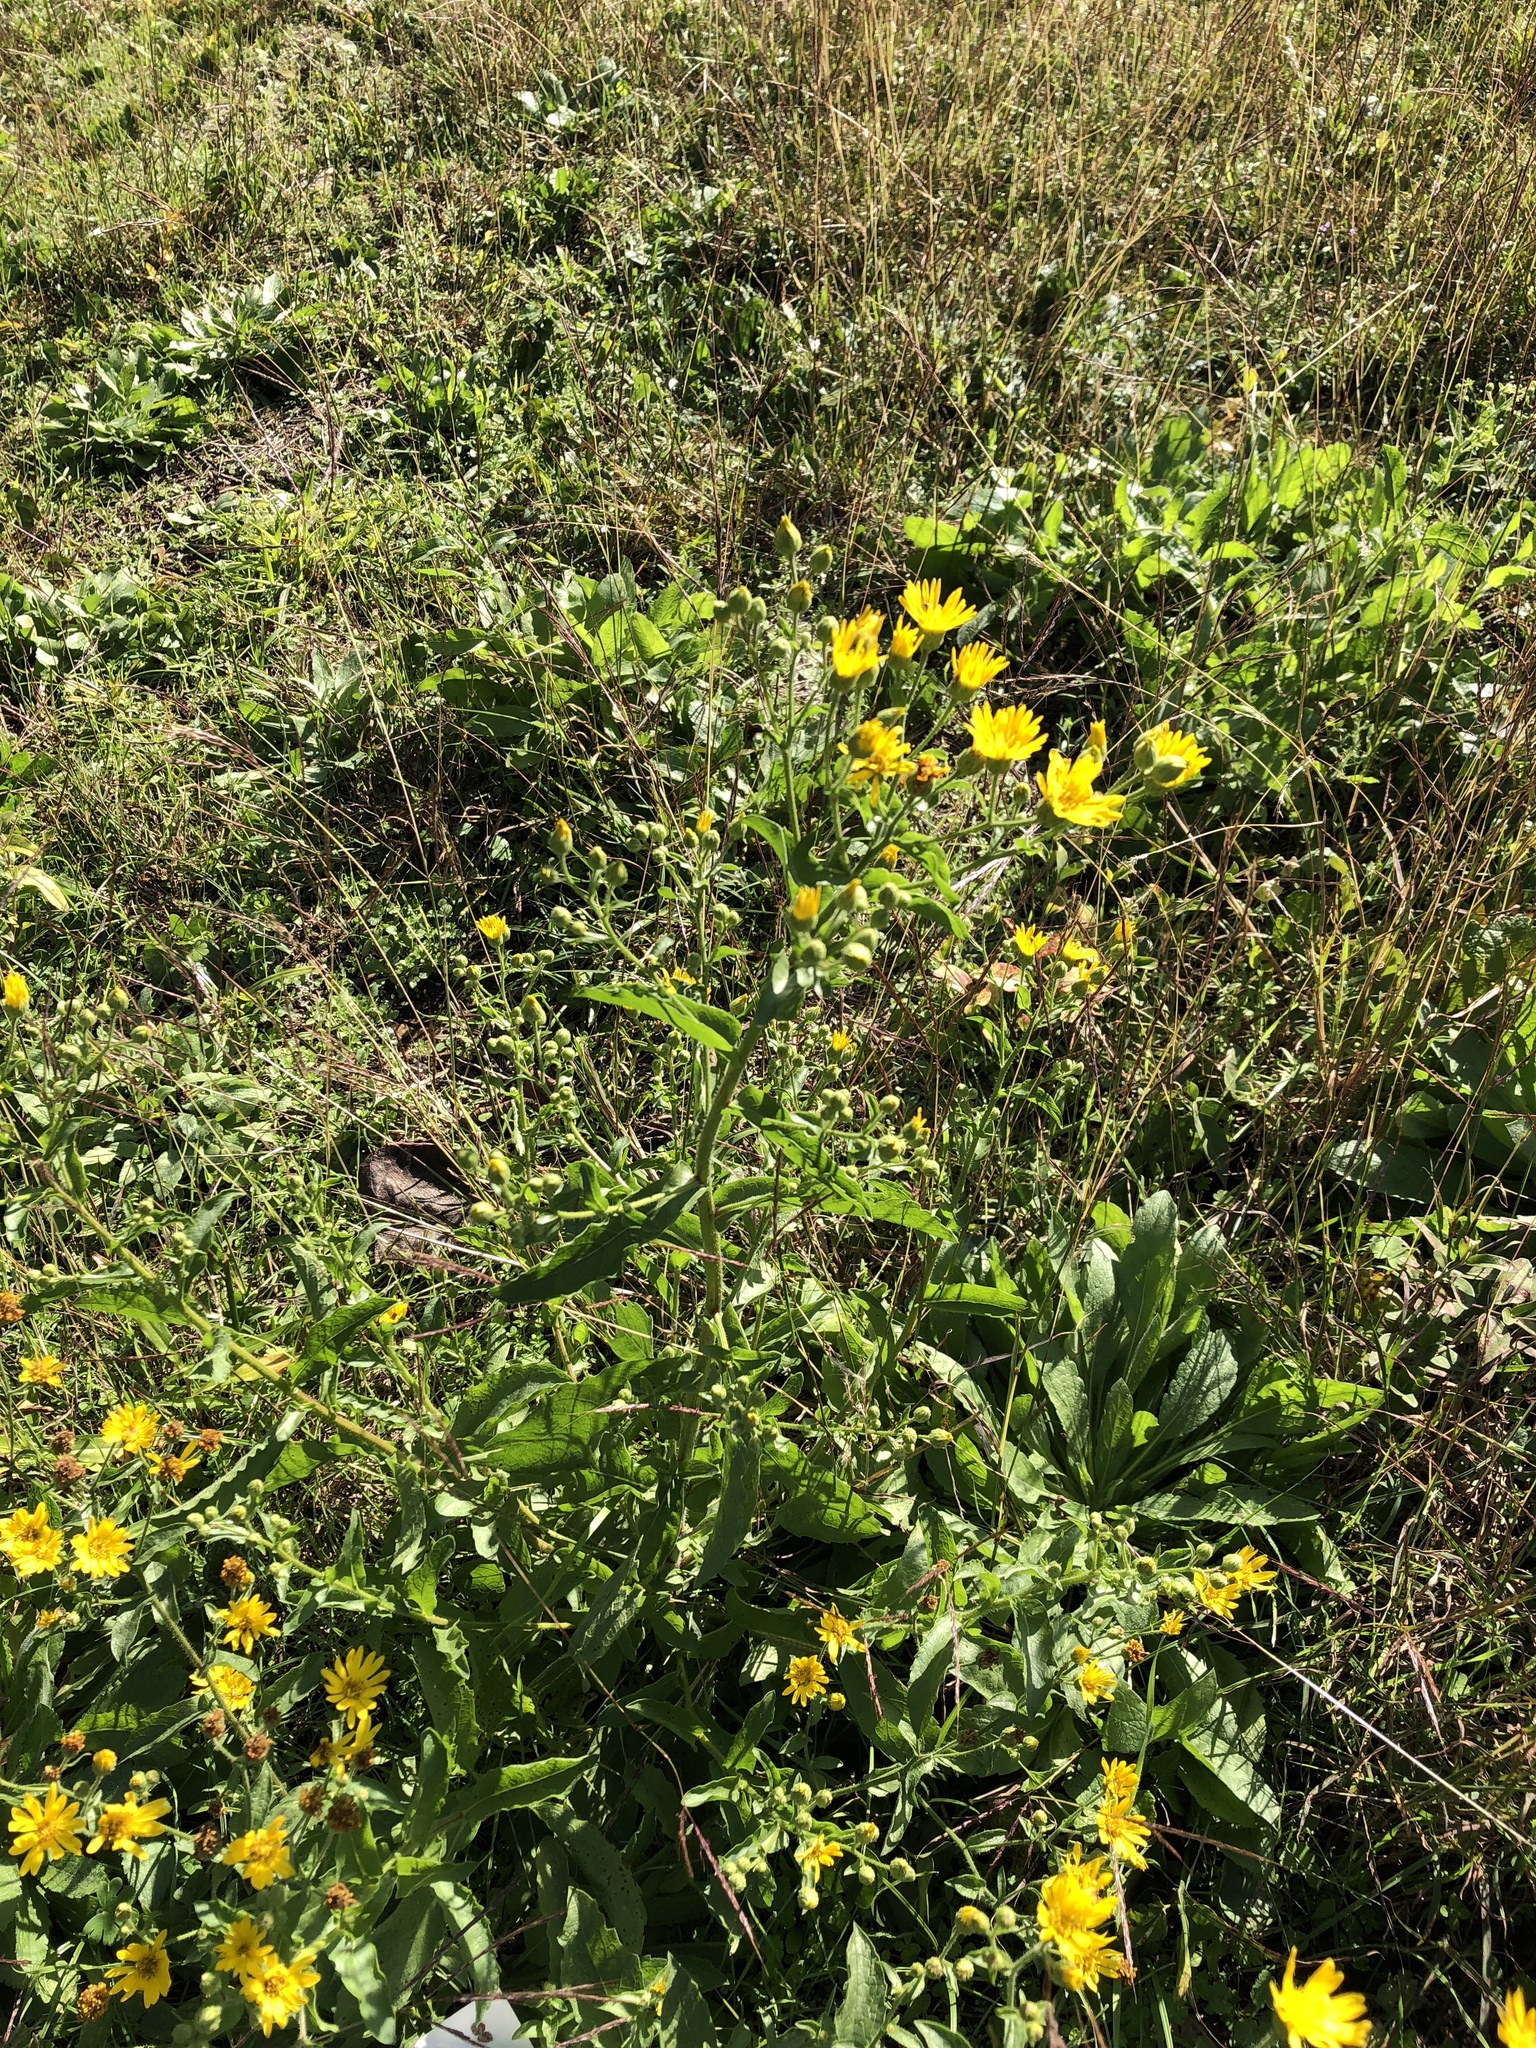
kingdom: Plantae
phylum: Tracheophyta
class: Magnoliopsida
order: Asterales
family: Asteraceae
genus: Heterotheca
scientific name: Heterotheca subaxillaris
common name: Camphorweed
